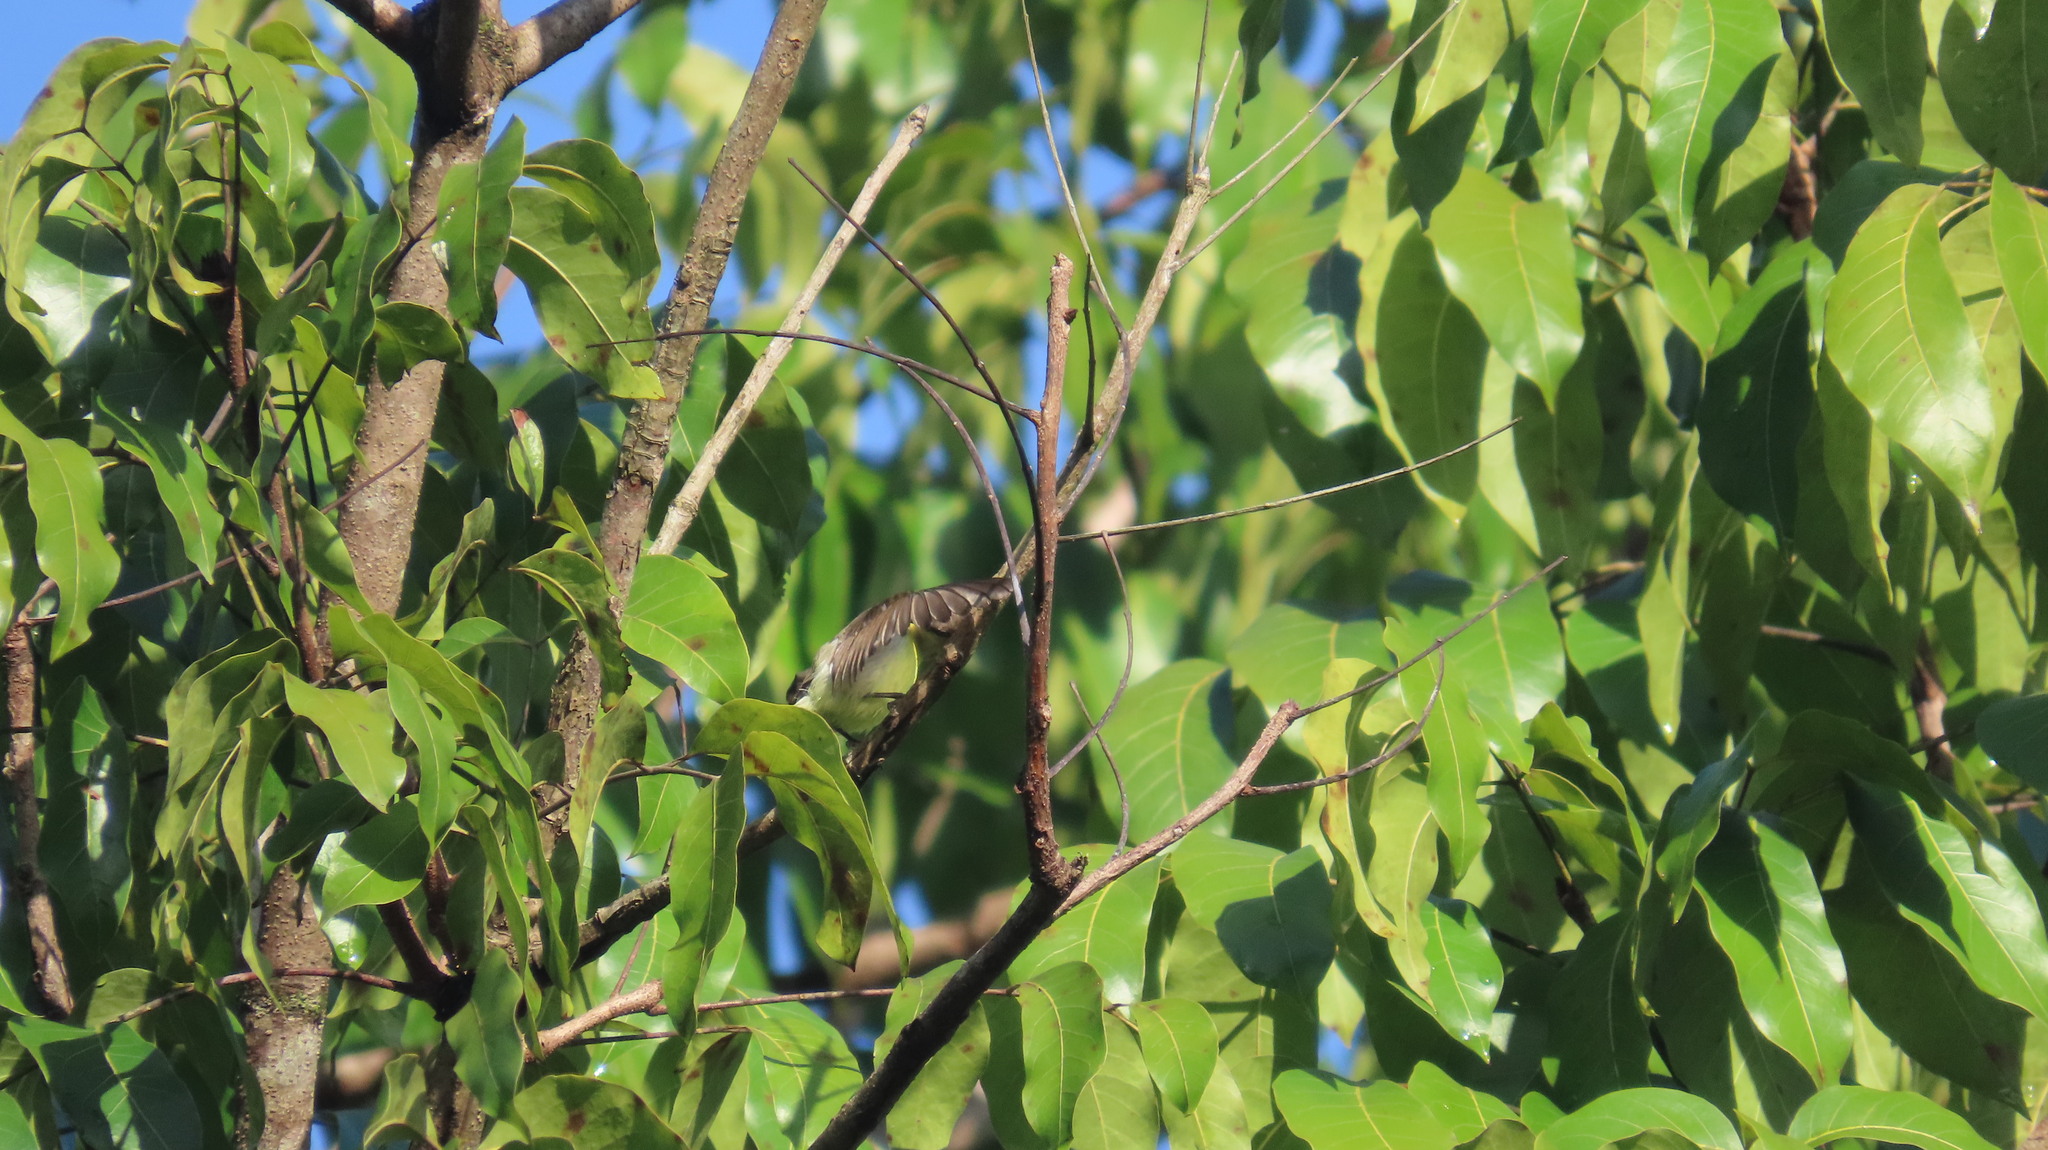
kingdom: Animalia
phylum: Chordata
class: Aves
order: Passeriformes
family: Nectariniidae
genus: Leptocoma
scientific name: Leptocoma zeylonica
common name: Purple-rumped sunbird
